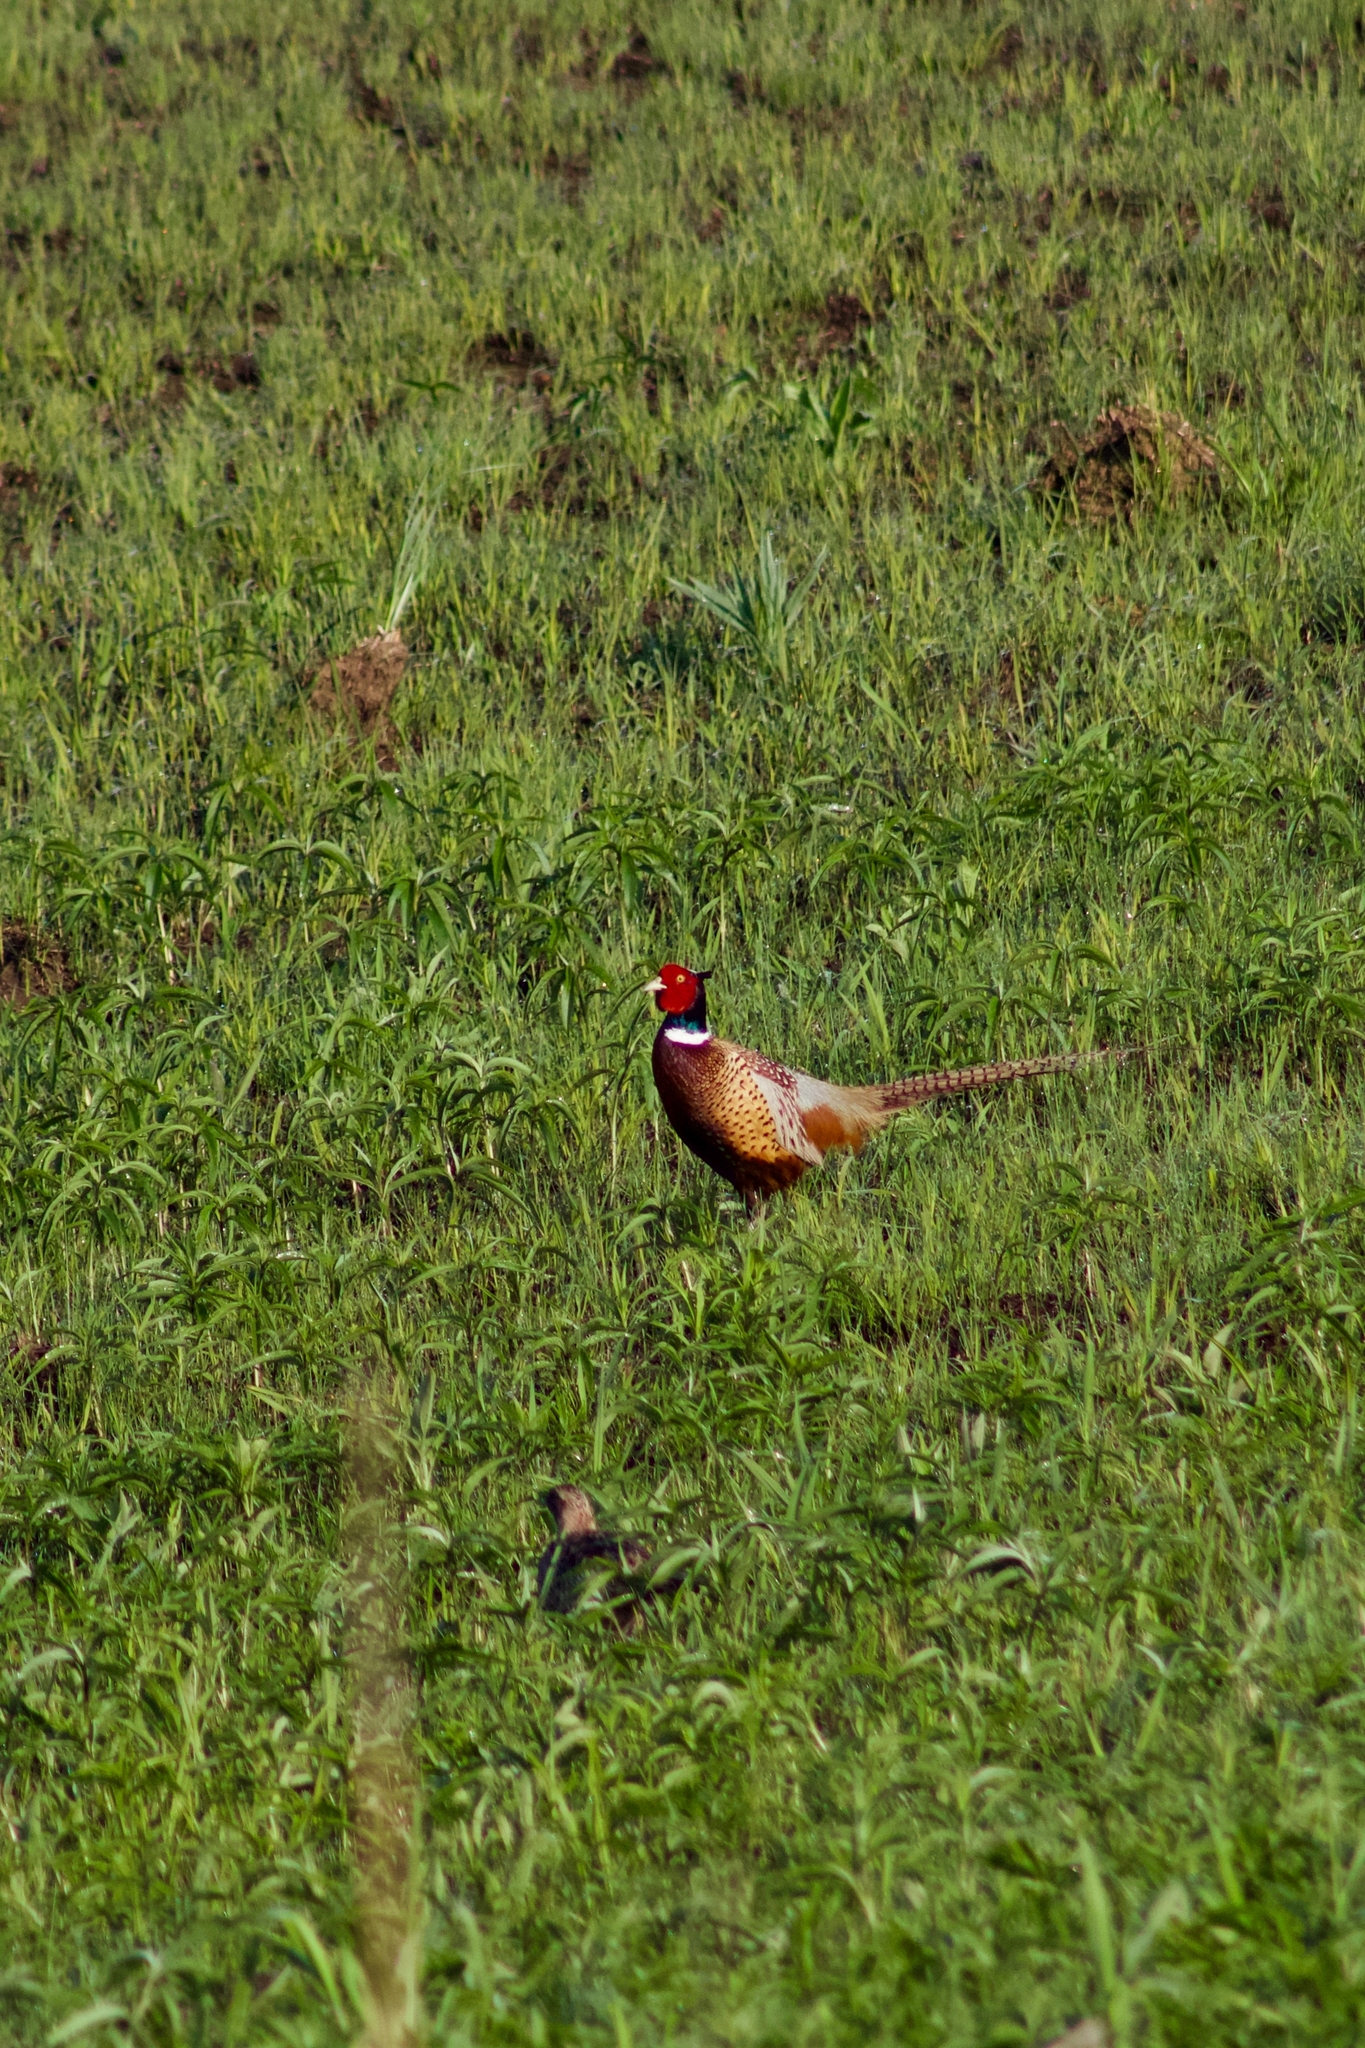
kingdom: Animalia
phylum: Chordata
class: Aves
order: Galliformes
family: Phasianidae
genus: Phasianus
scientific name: Phasianus colchicus
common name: Common pheasant
